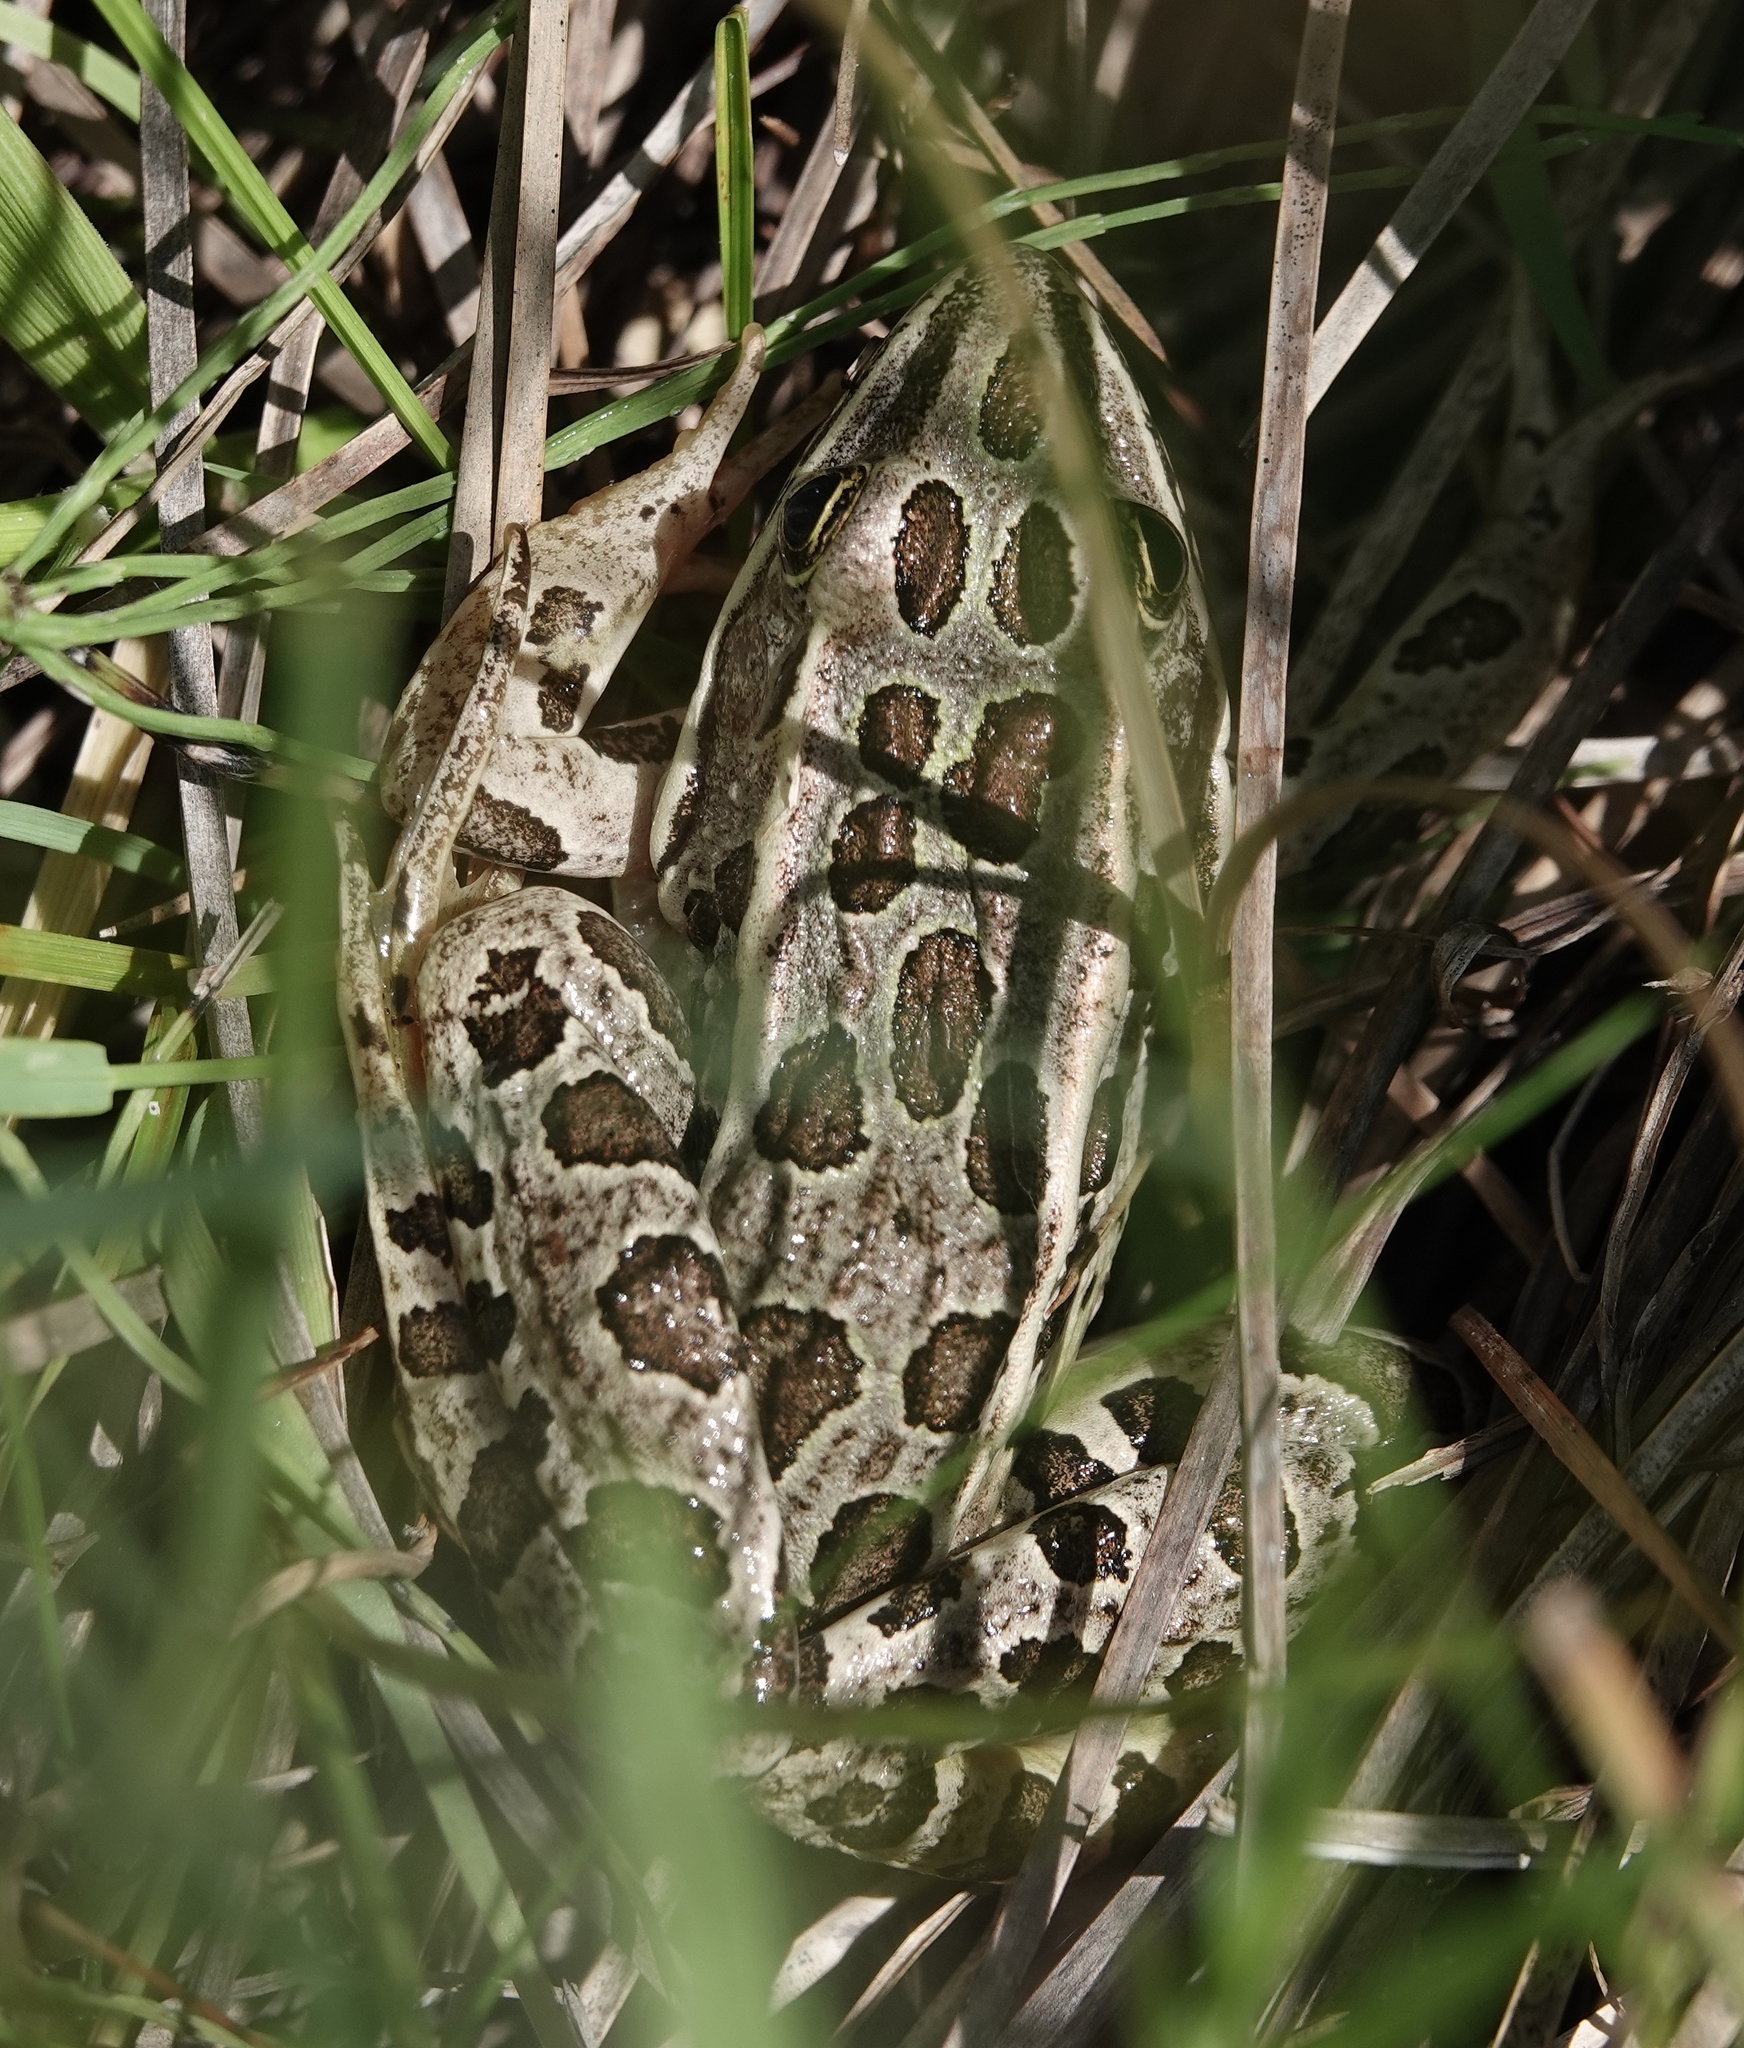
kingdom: Animalia
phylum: Chordata
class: Amphibia
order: Anura
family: Ranidae
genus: Lithobates
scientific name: Lithobates pipiens
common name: Northern leopard frog
